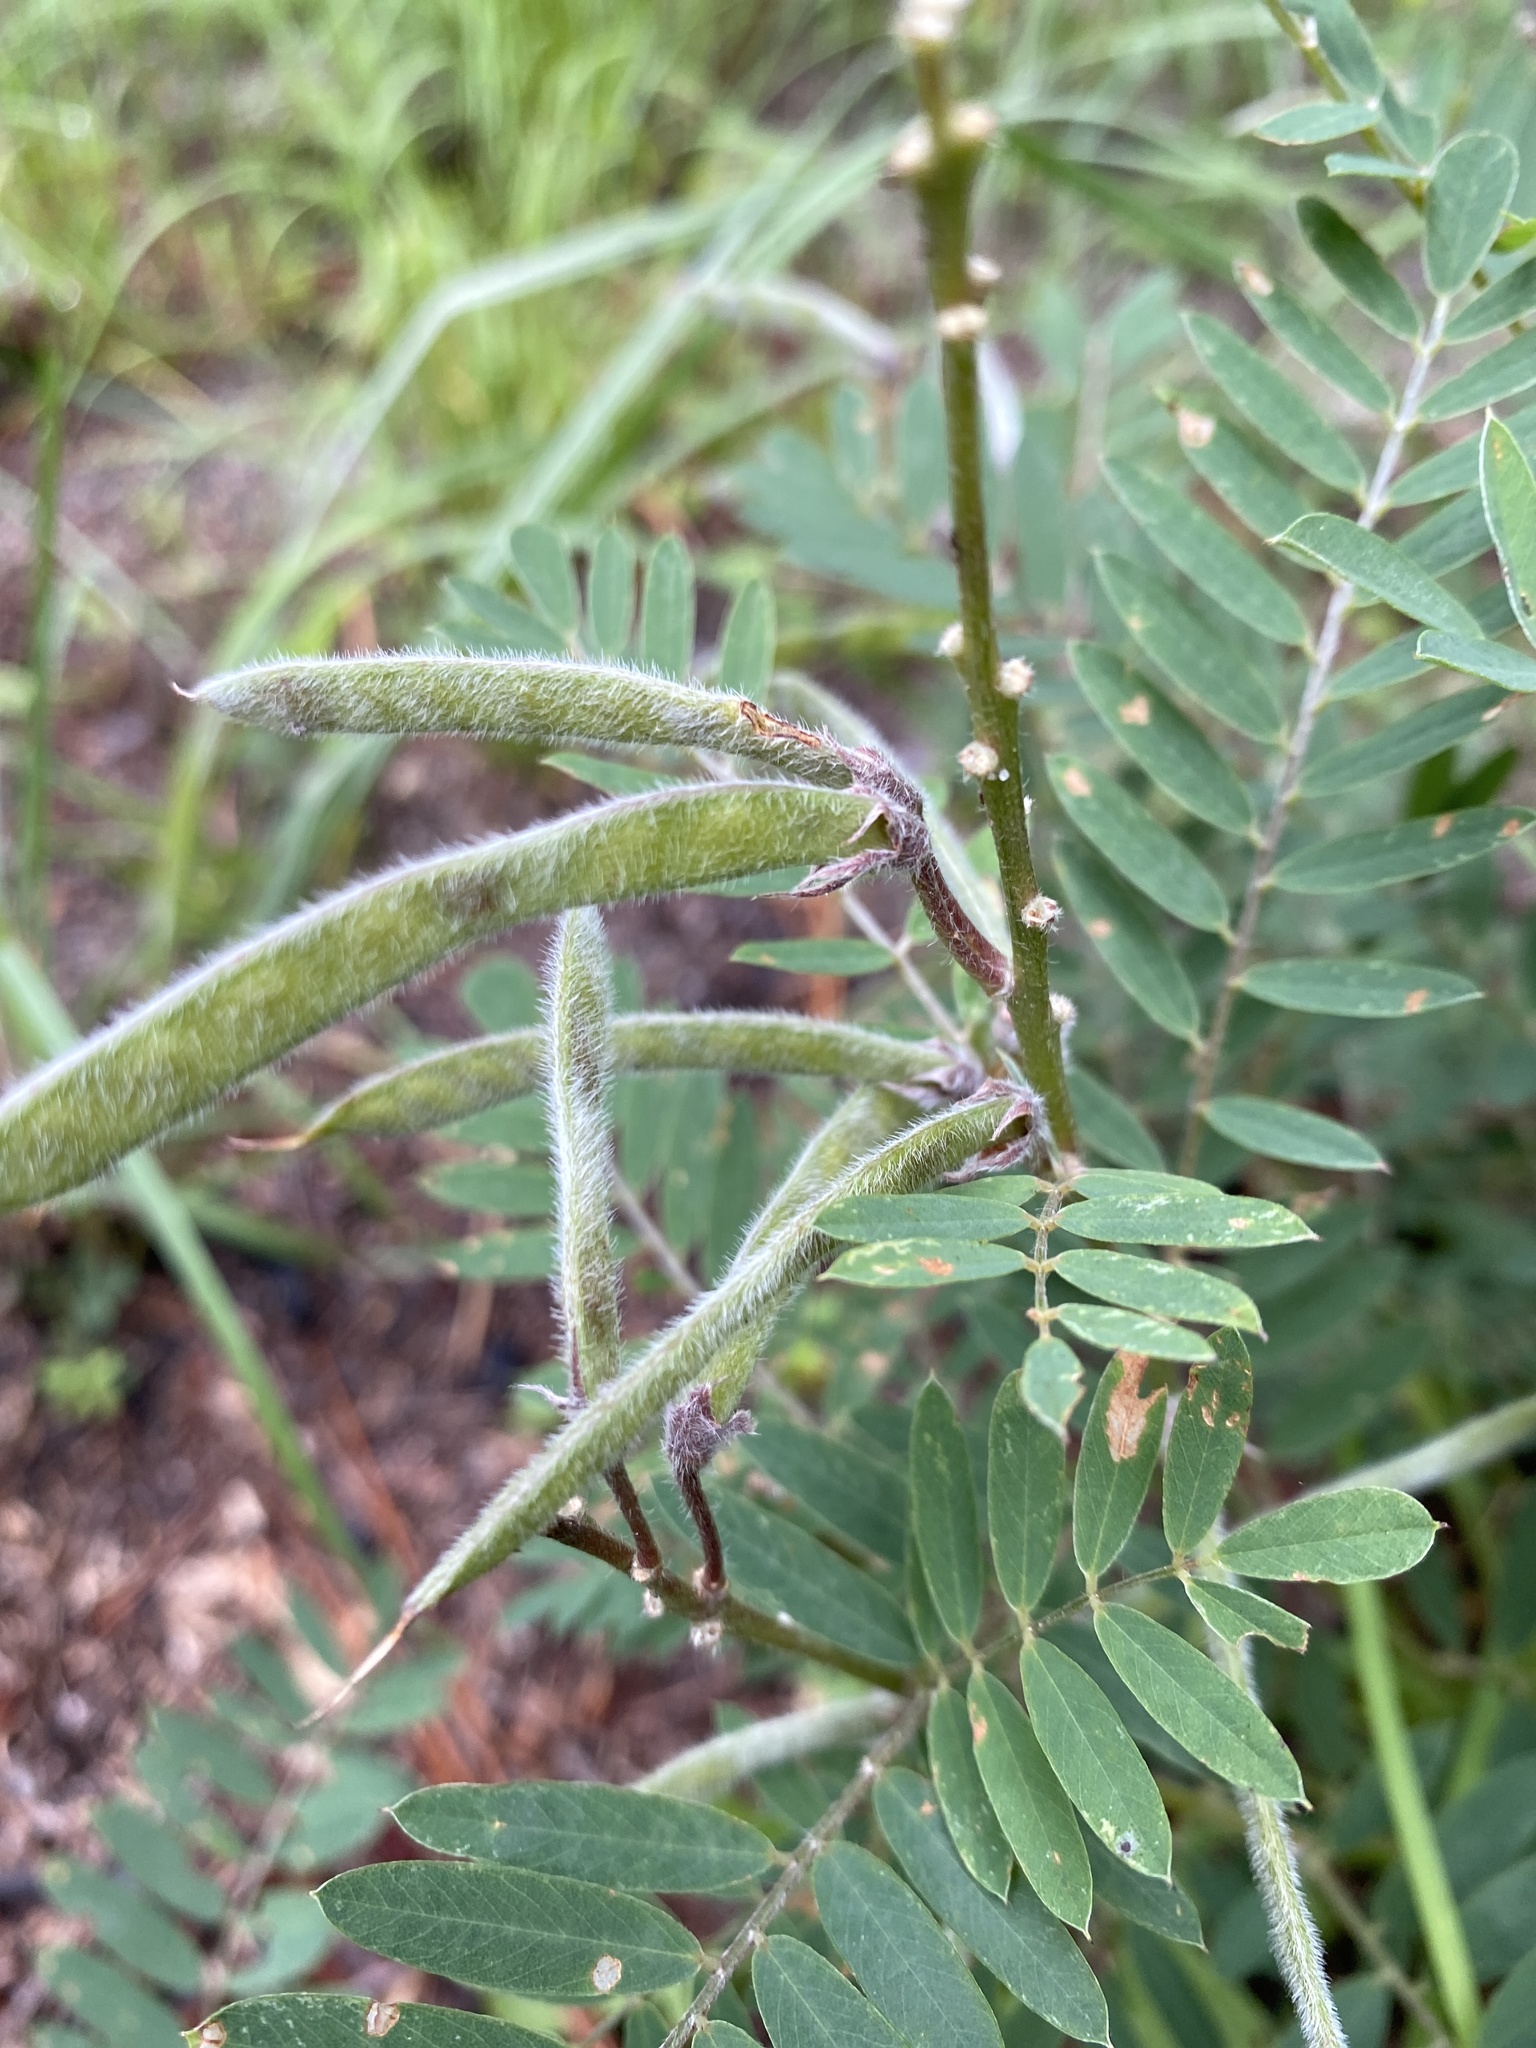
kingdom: Plantae
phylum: Tracheophyta
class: Magnoliopsida
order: Fabales
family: Fabaceae
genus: Tephrosia
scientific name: Tephrosia virginiana
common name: Rabbit-pea
